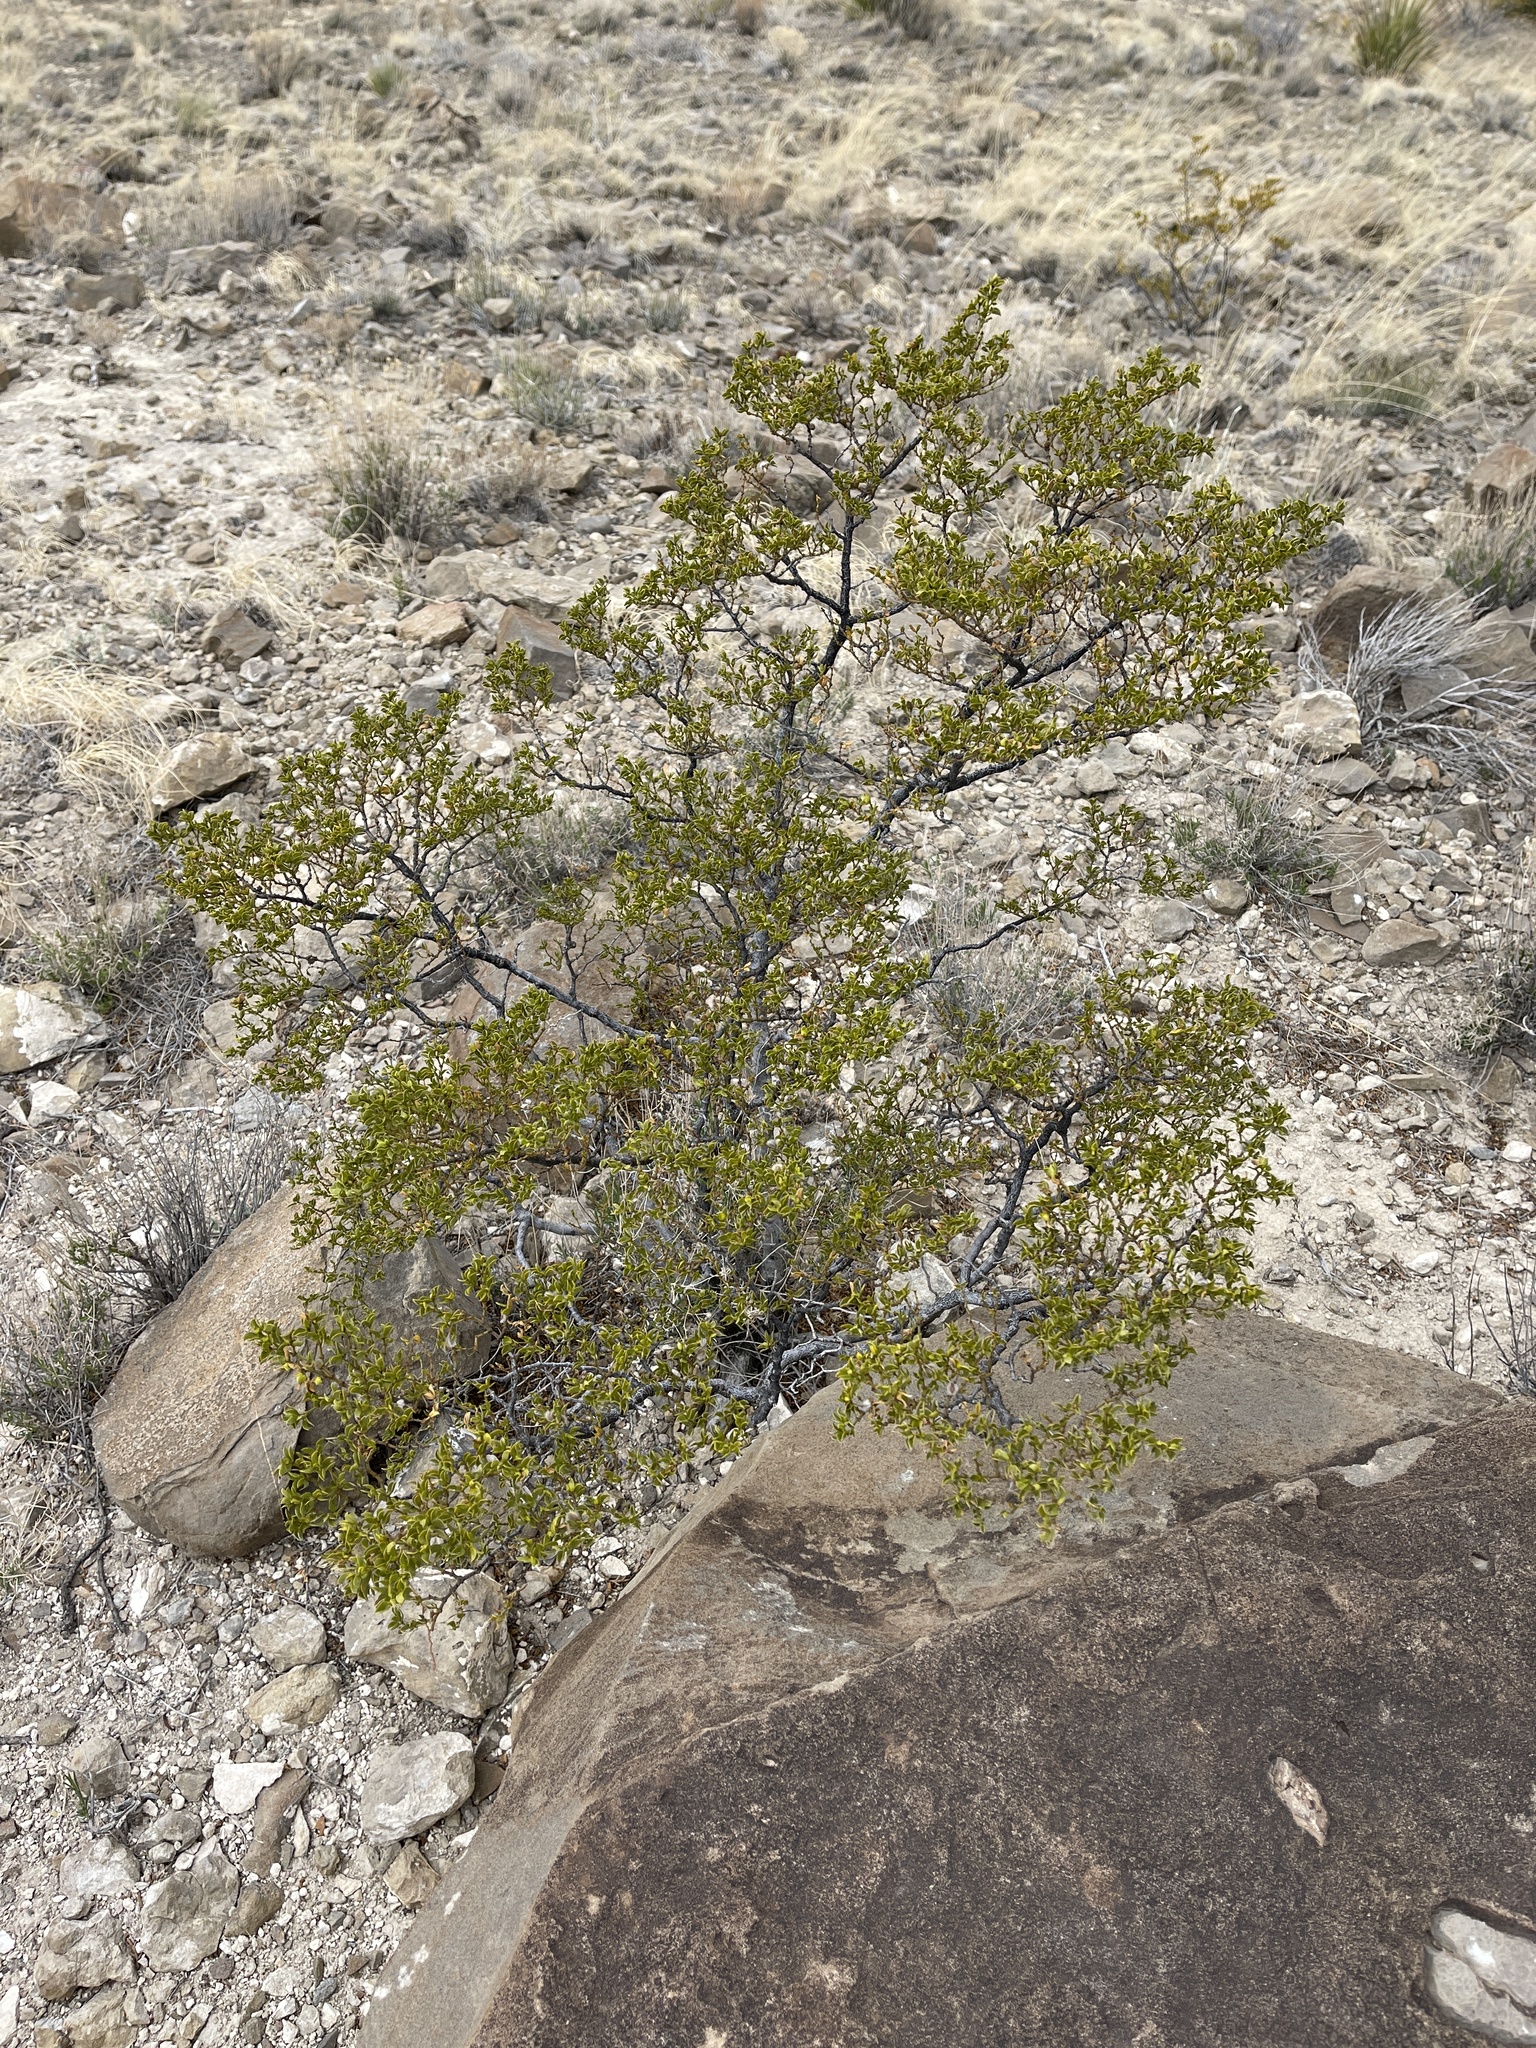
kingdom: Plantae
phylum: Tracheophyta
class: Magnoliopsida
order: Zygophyllales
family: Zygophyllaceae
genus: Larrea
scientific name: Larrea tridentata
